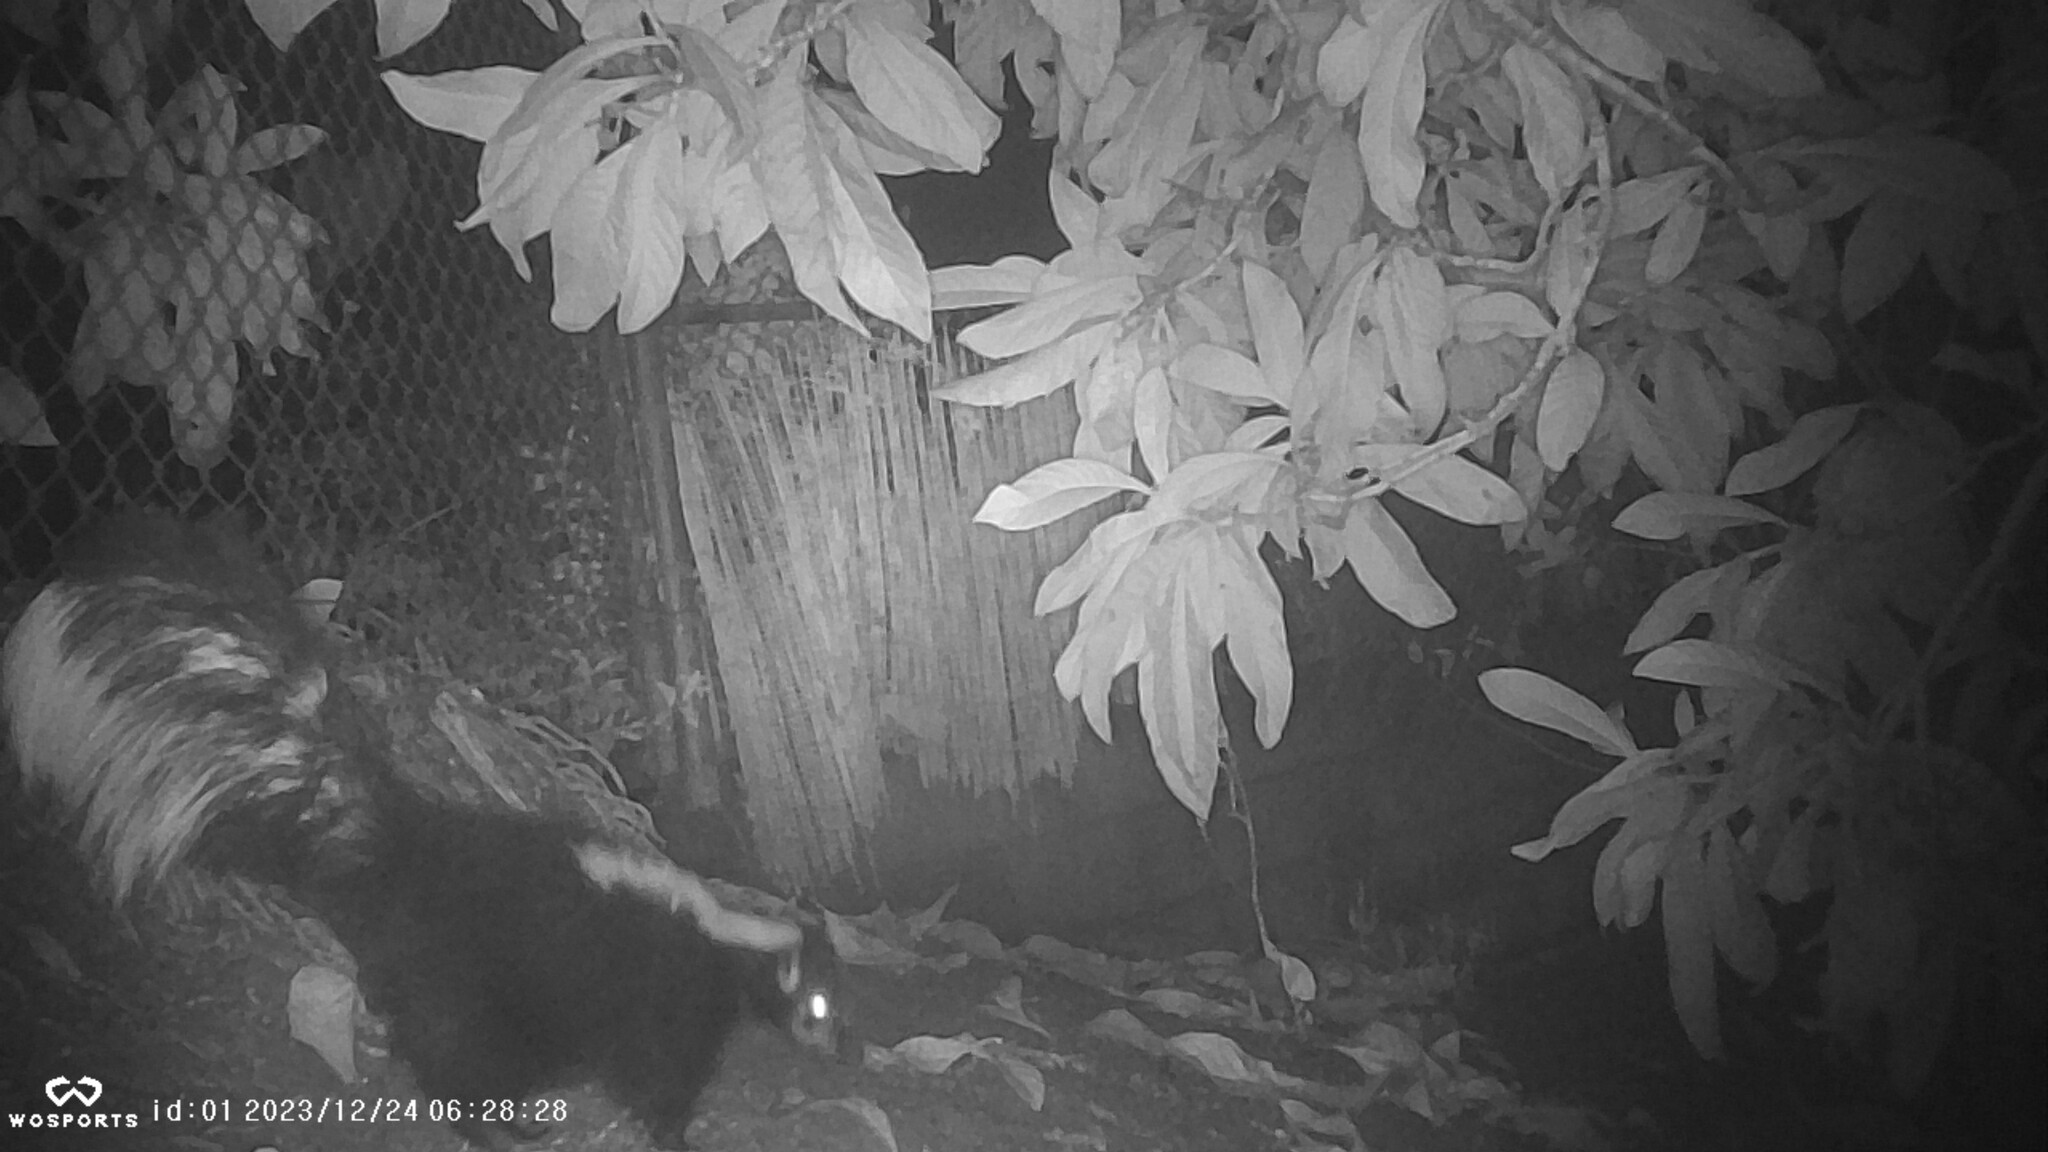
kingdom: Animalia
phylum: Chordata
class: Mammalia
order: Carnivora
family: Mephitidae
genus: Mephitis
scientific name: Mephitis mephitis
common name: Striped skunk
